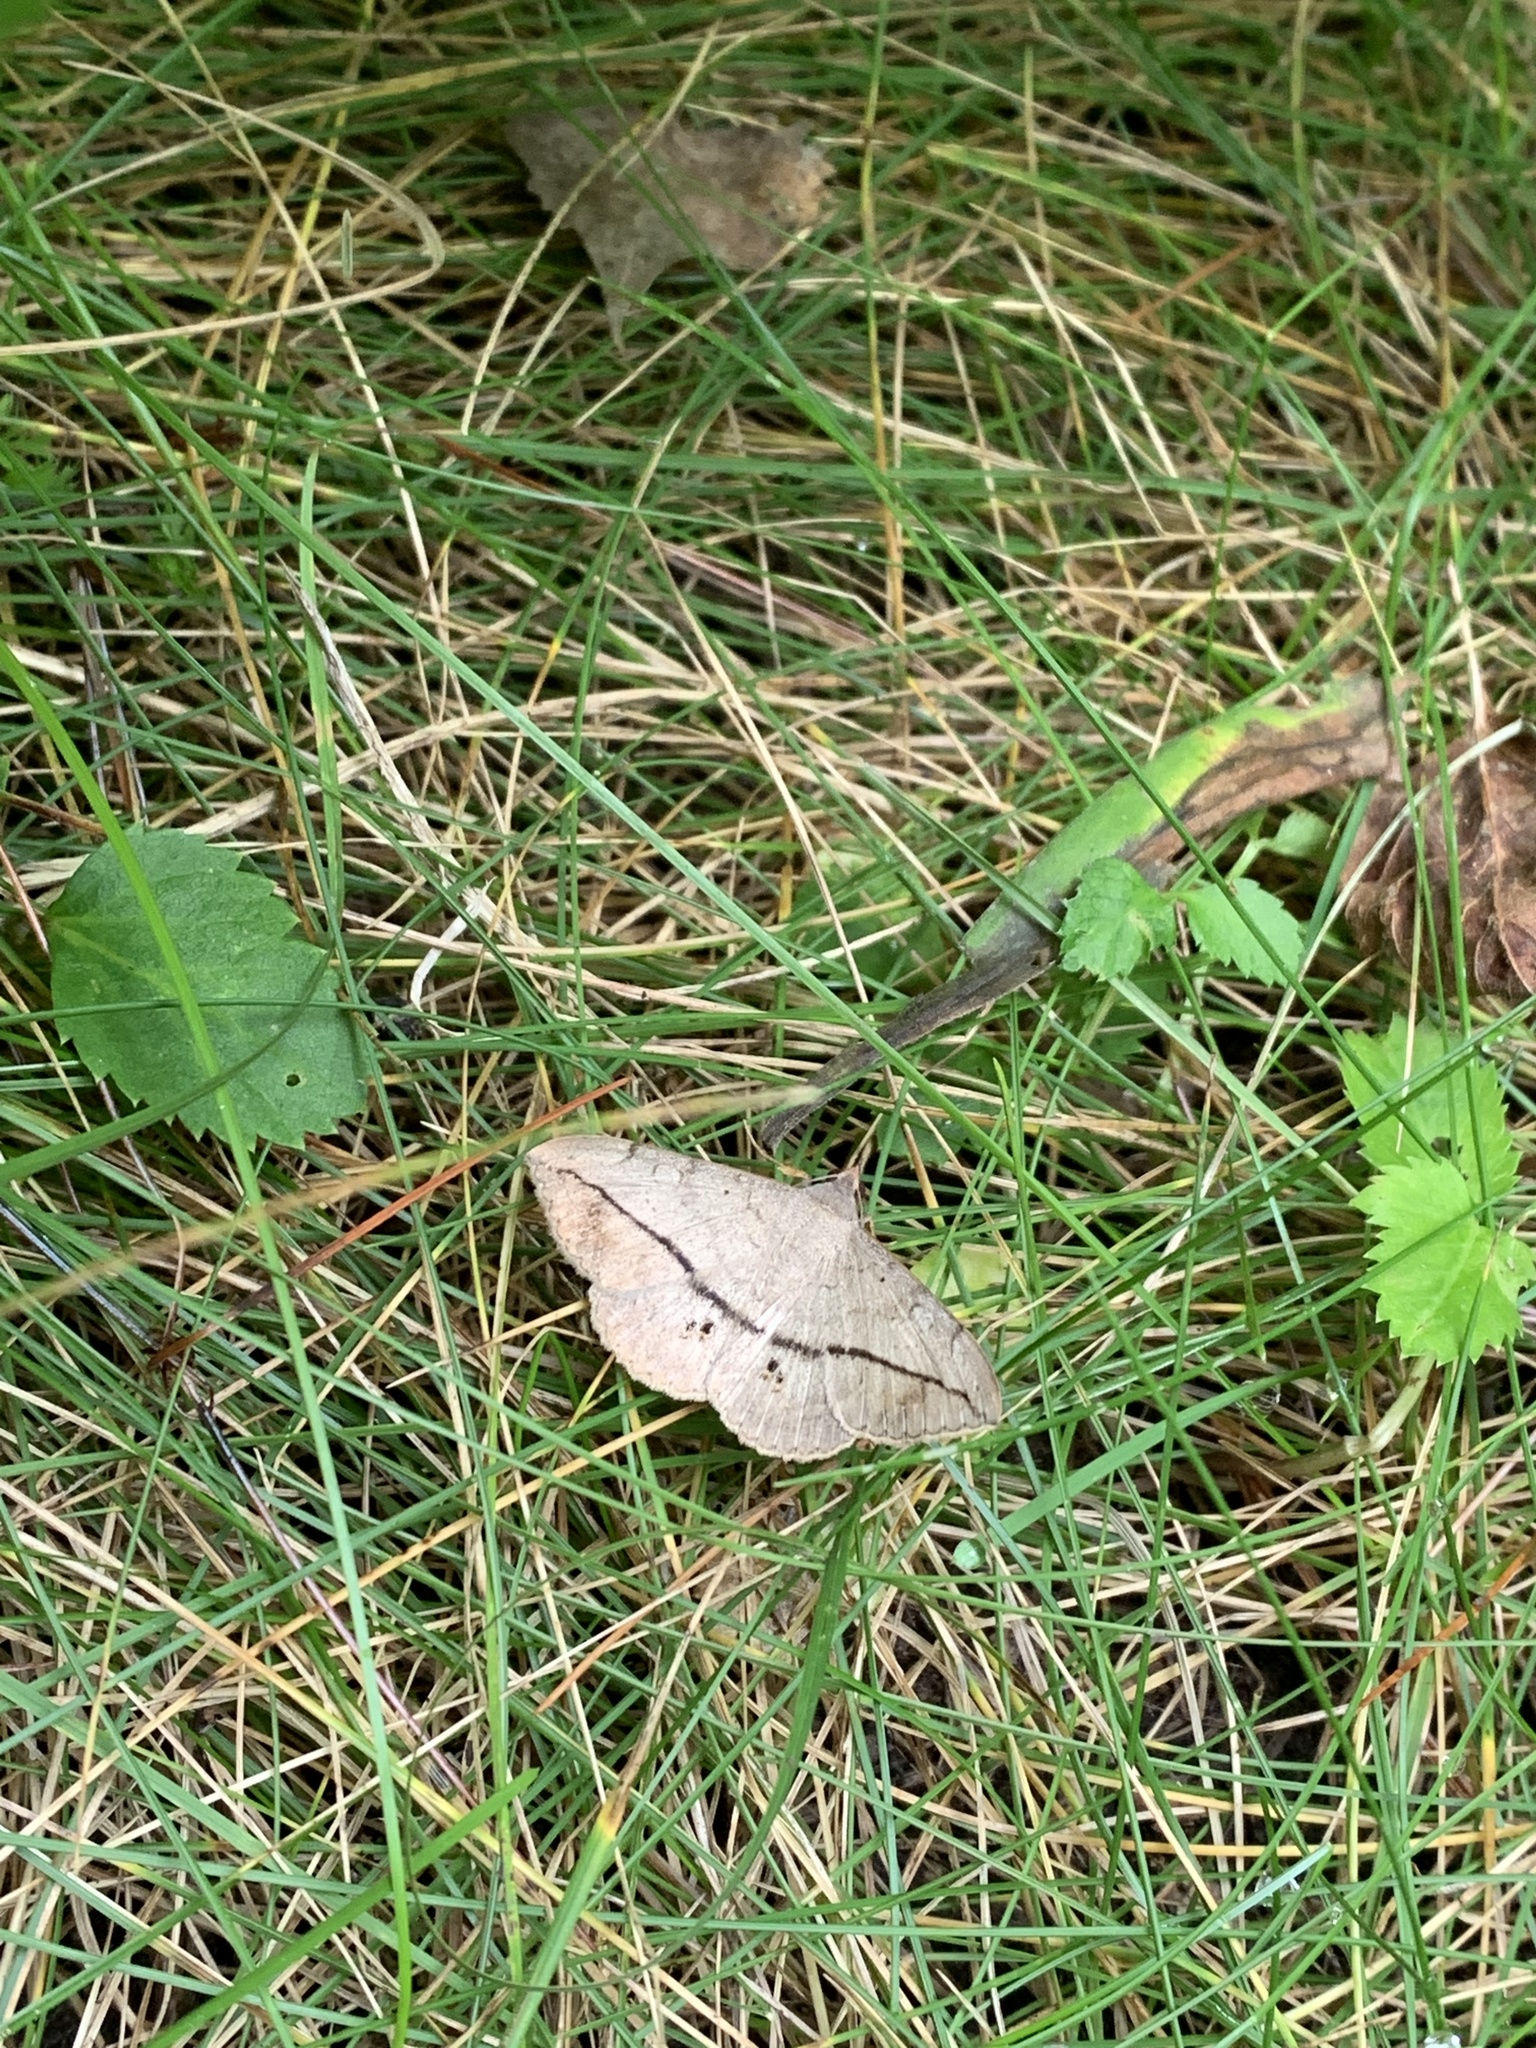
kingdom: Animalia
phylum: Arthropoda
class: Insecta
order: Lepidoptera
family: Erebidae
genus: Anticarsia
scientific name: Anticarsia gemmatalis
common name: Cutworm moth
